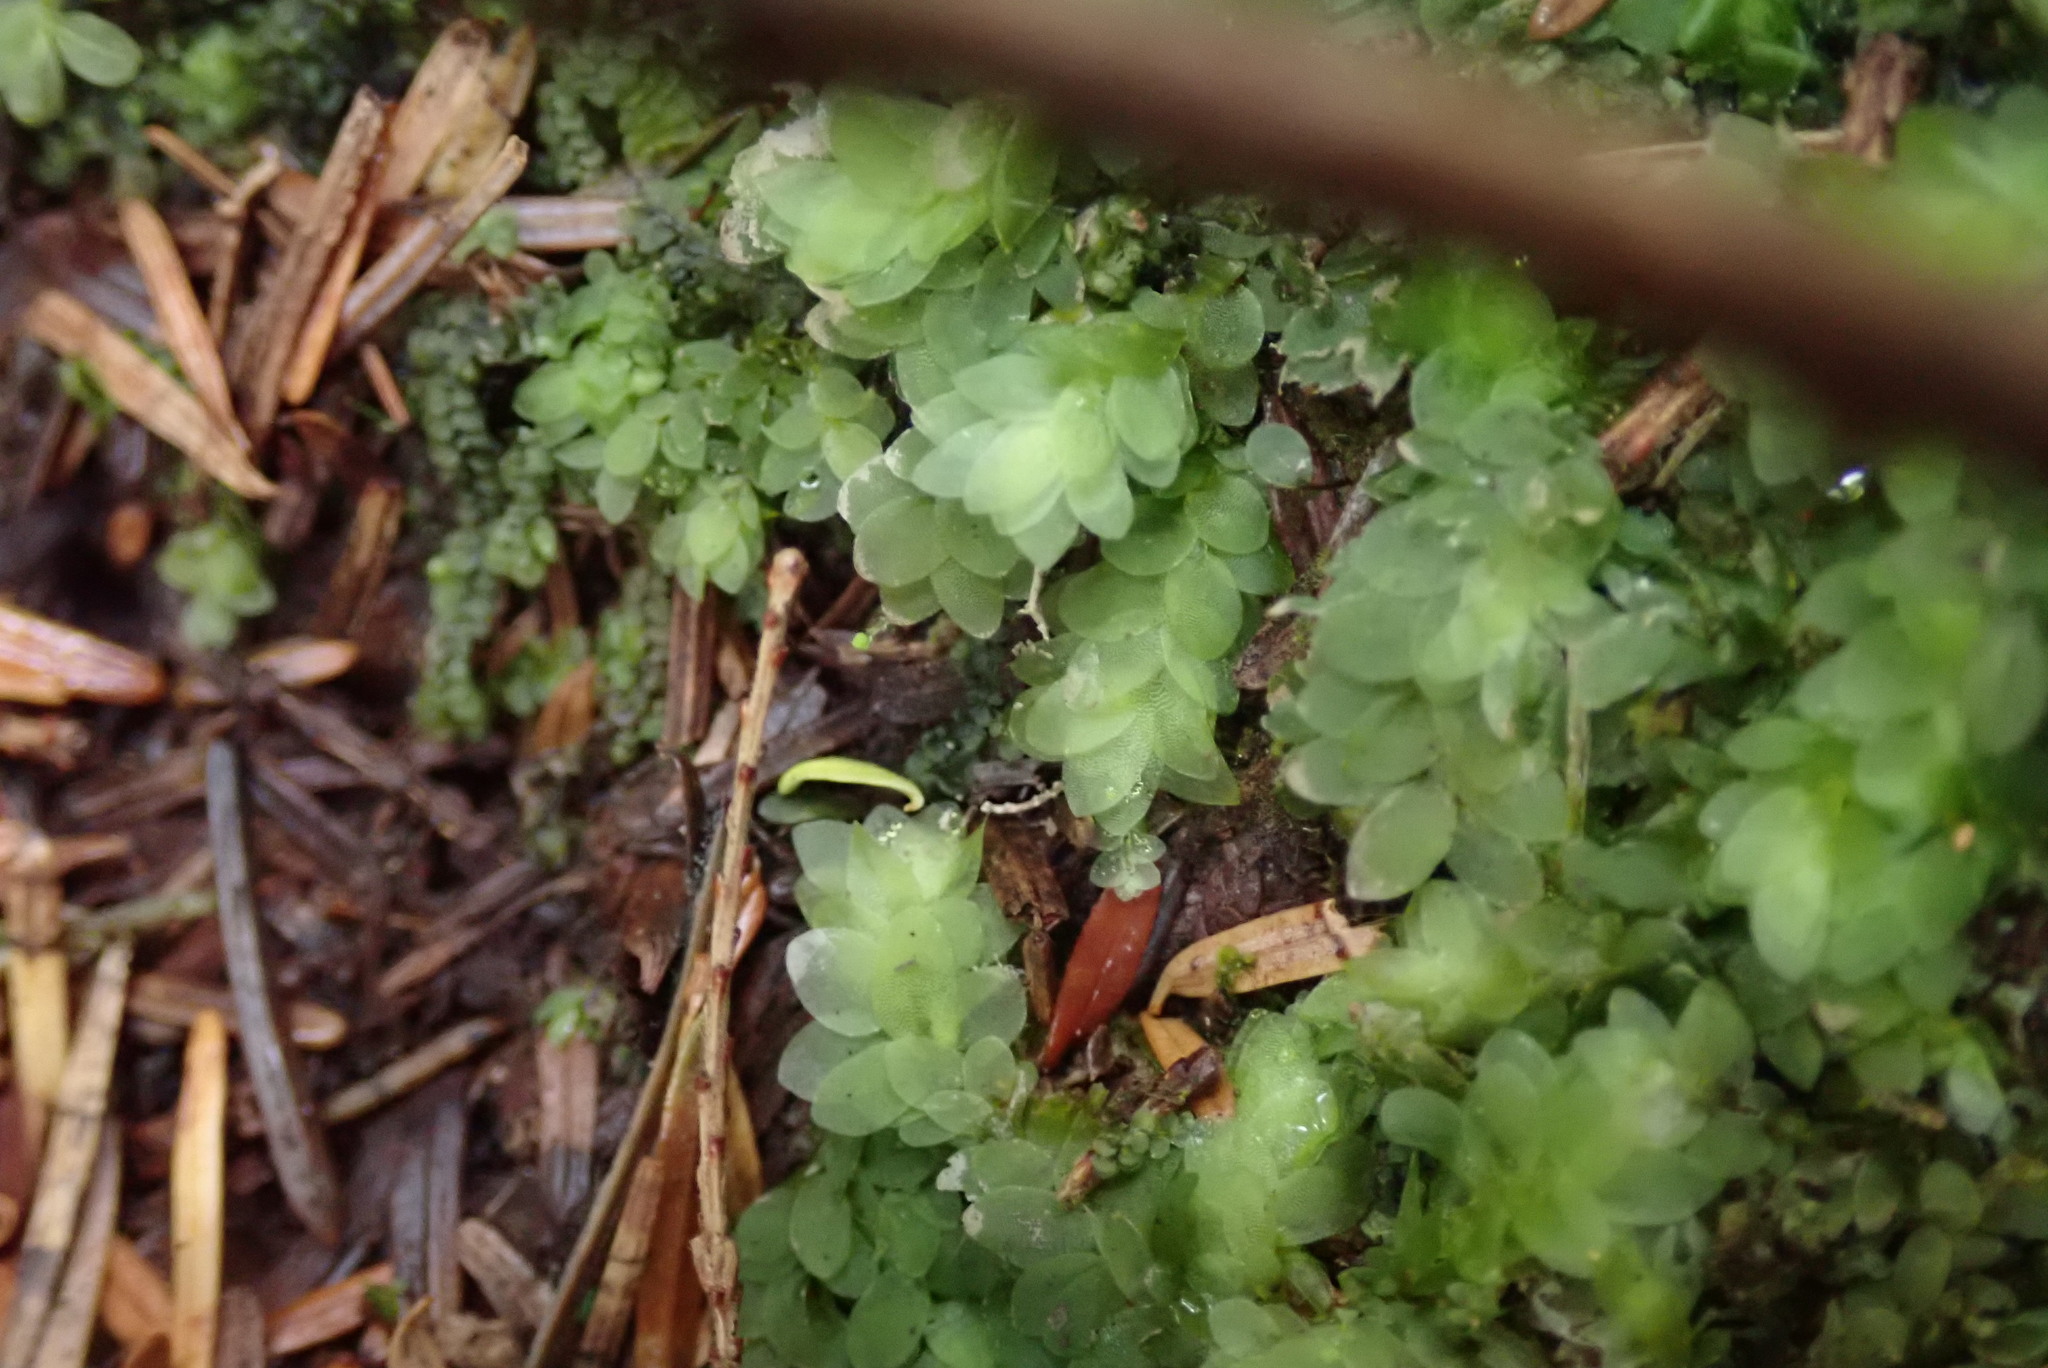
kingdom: Plantae
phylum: Bryophyta
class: Bryopsida
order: Hookeriales
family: Hookeriaceae
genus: Hookeria
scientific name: Hookeria lucens
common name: Shining hookeria
